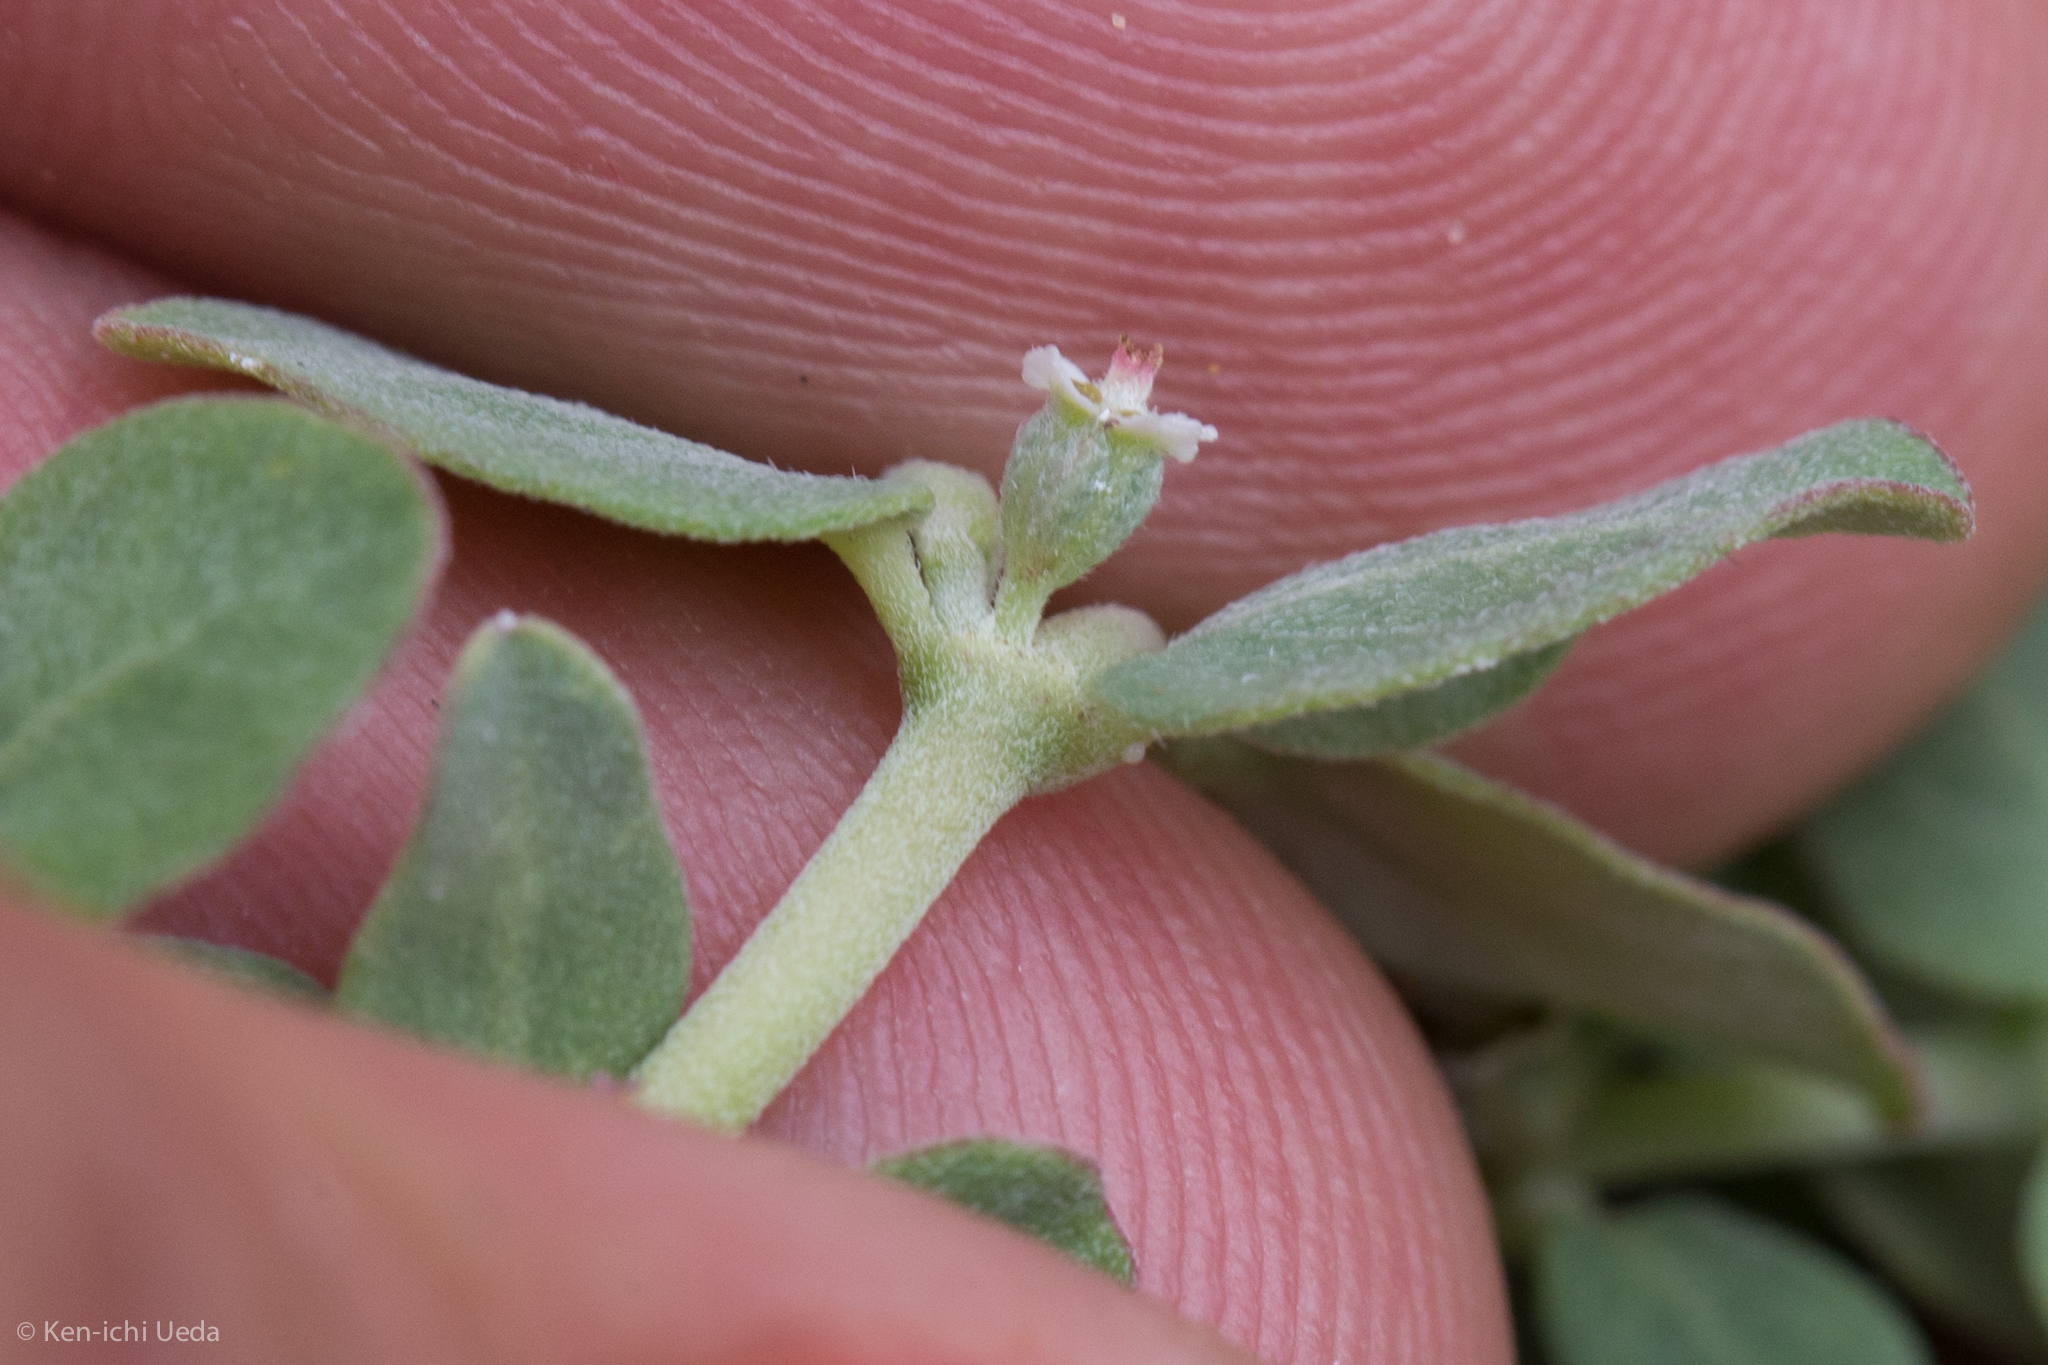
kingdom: Plantae
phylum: Tracheophyta
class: Magnoliopsida
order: Malpighiales
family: Euphorbiaceae
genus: Euphorbia
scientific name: Euphorbia pediculifera
